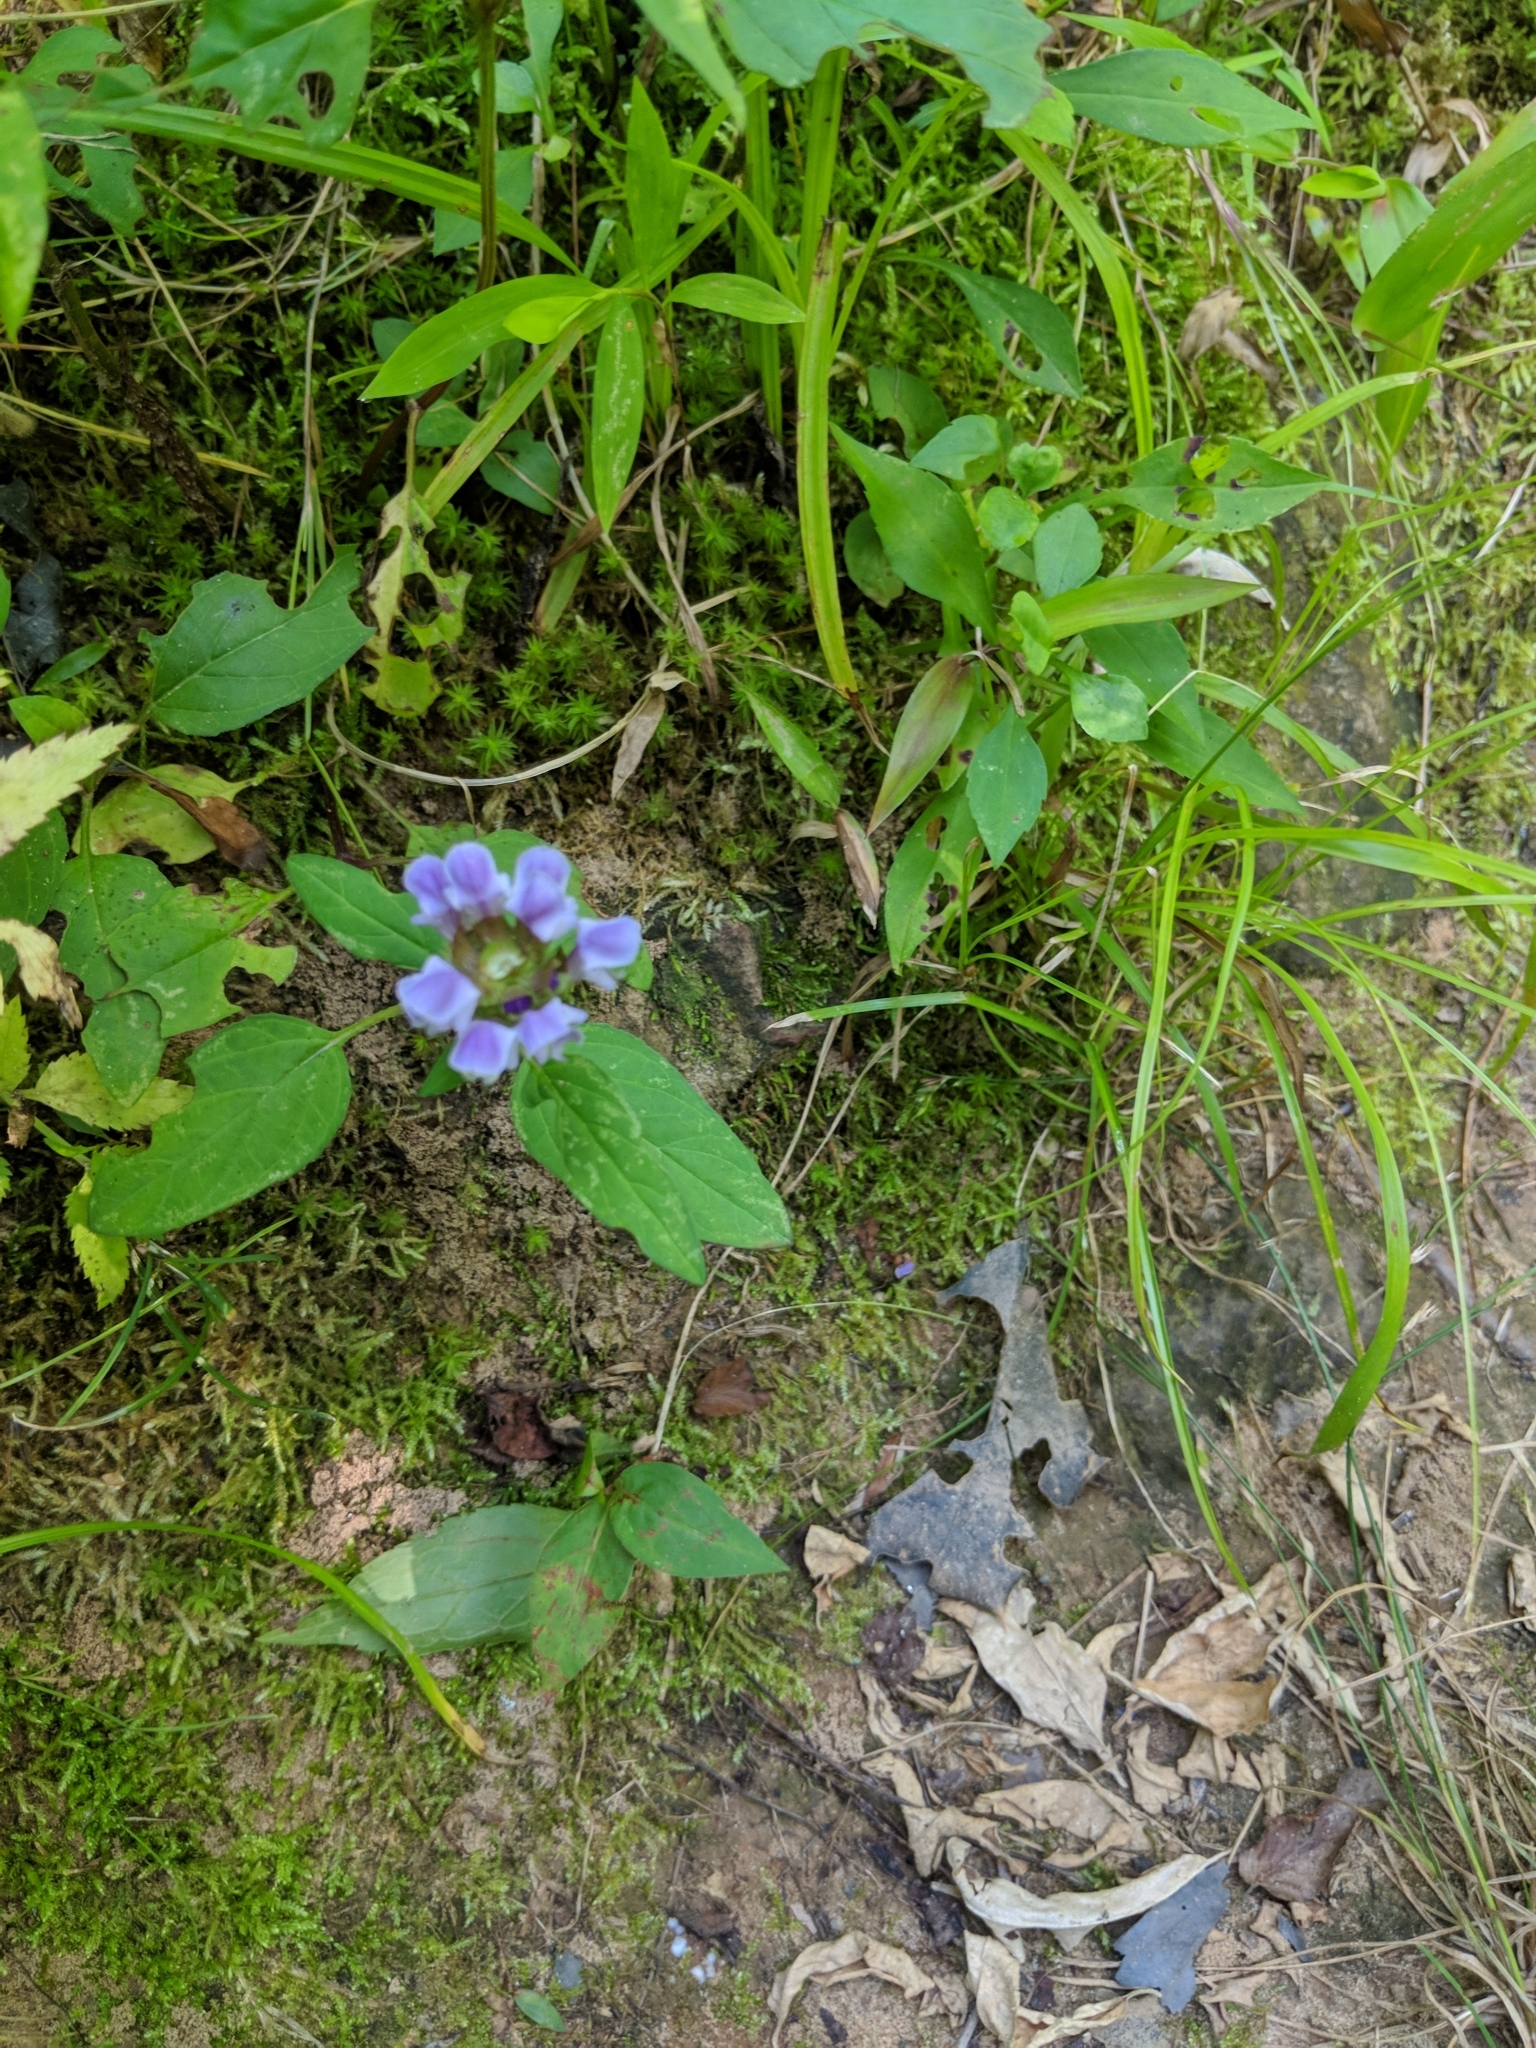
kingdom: Plantae
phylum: Tracheophyta
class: Magnoliopsida
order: Lamiales
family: Lamiaceae
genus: Prunella
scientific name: Prunella vulgaris
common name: Heal-all
